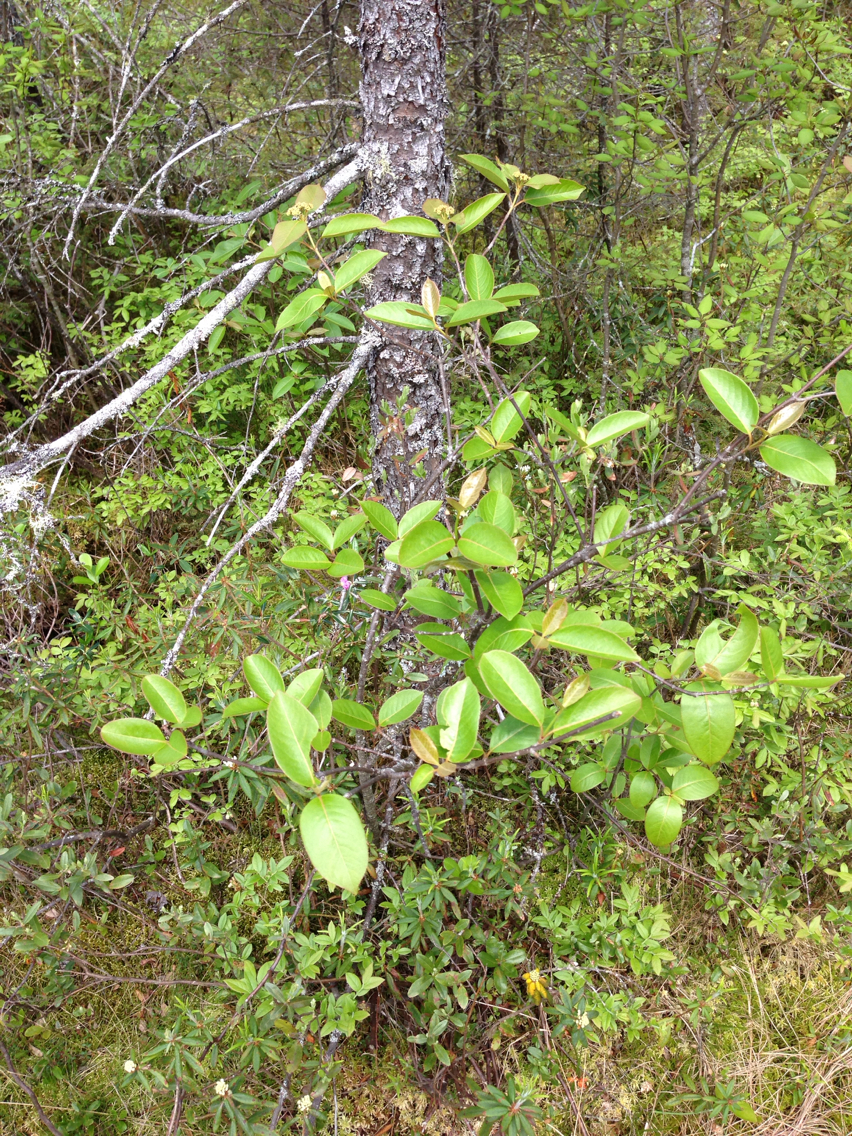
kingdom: Plantae
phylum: Tracheophyta
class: Magnoliopsida
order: Dipsacales
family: Viburnaceae
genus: Viburnum
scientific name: Viburnum cassinoides
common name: Swamp haw
